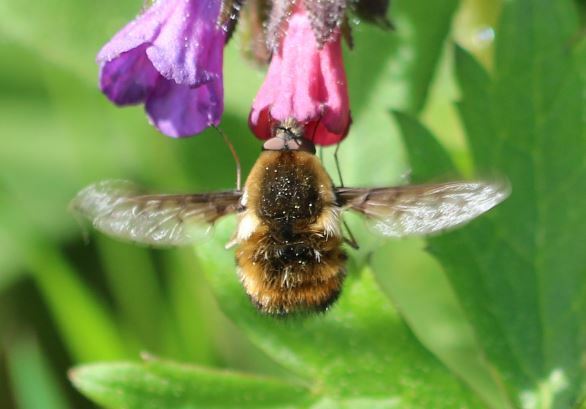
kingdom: Animalia
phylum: Arthropoda
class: Insecta
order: Diptera
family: Bombyliidae
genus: Bombylius
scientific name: Bombylius discolor
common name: Dotted bee-fly
